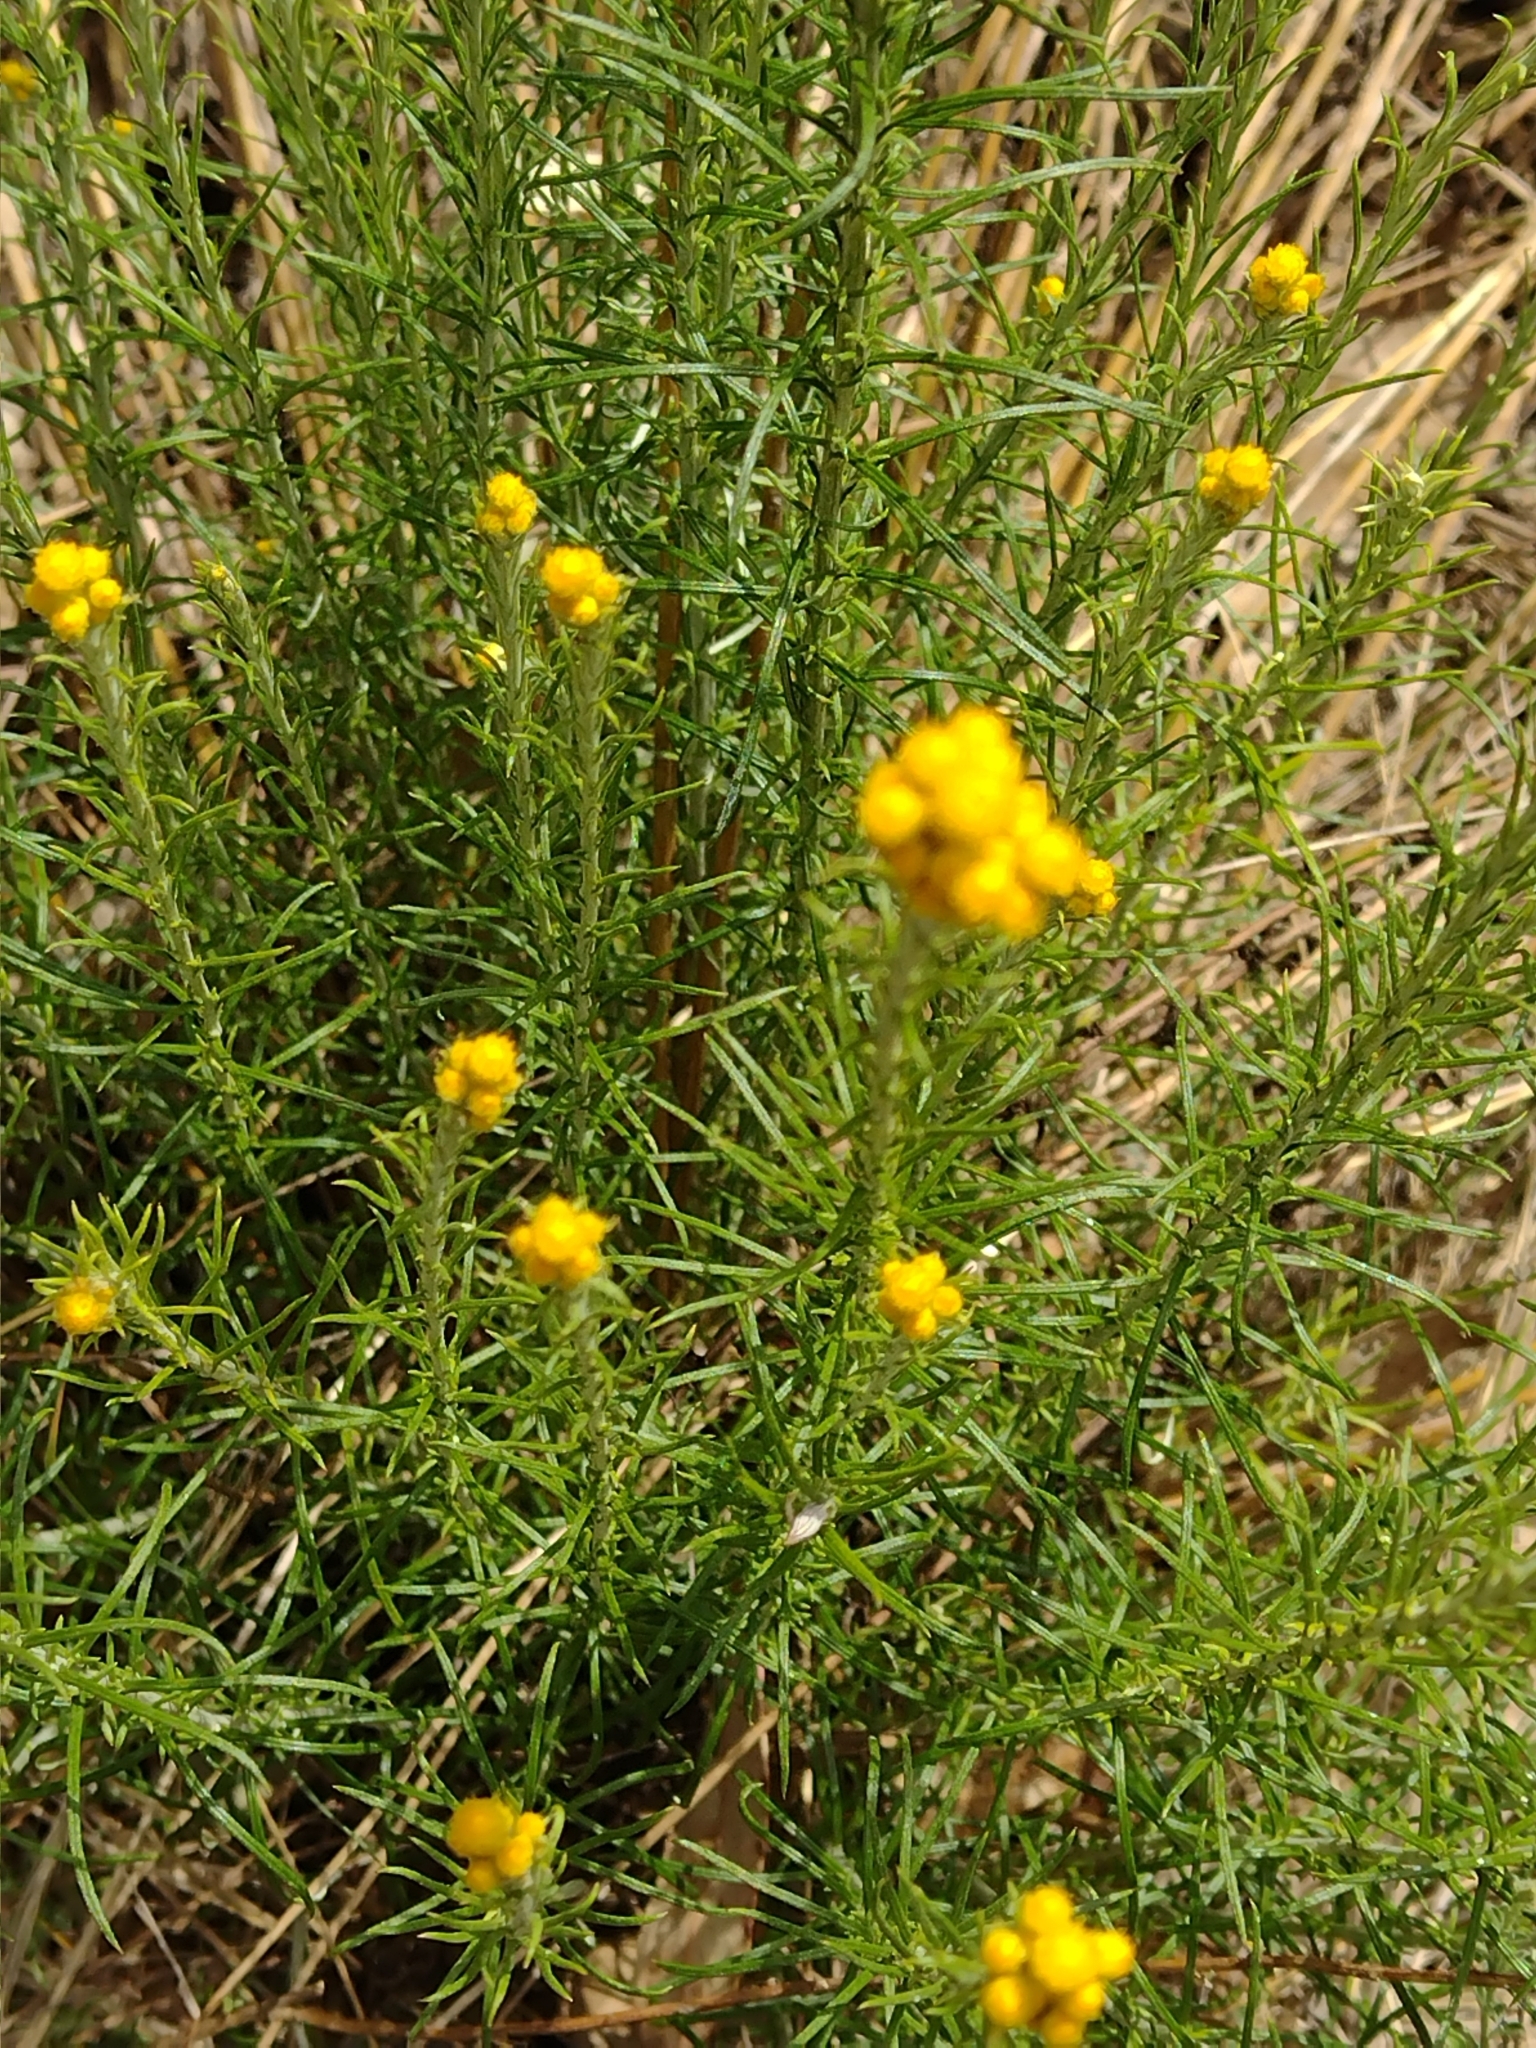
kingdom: Plantae
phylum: Tracheophyta
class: Magnoliopsida
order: Asterales
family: Asteraceae
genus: Chrysocephalum
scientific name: Chrysocephalum semipapposum
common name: Clustered everlasting
